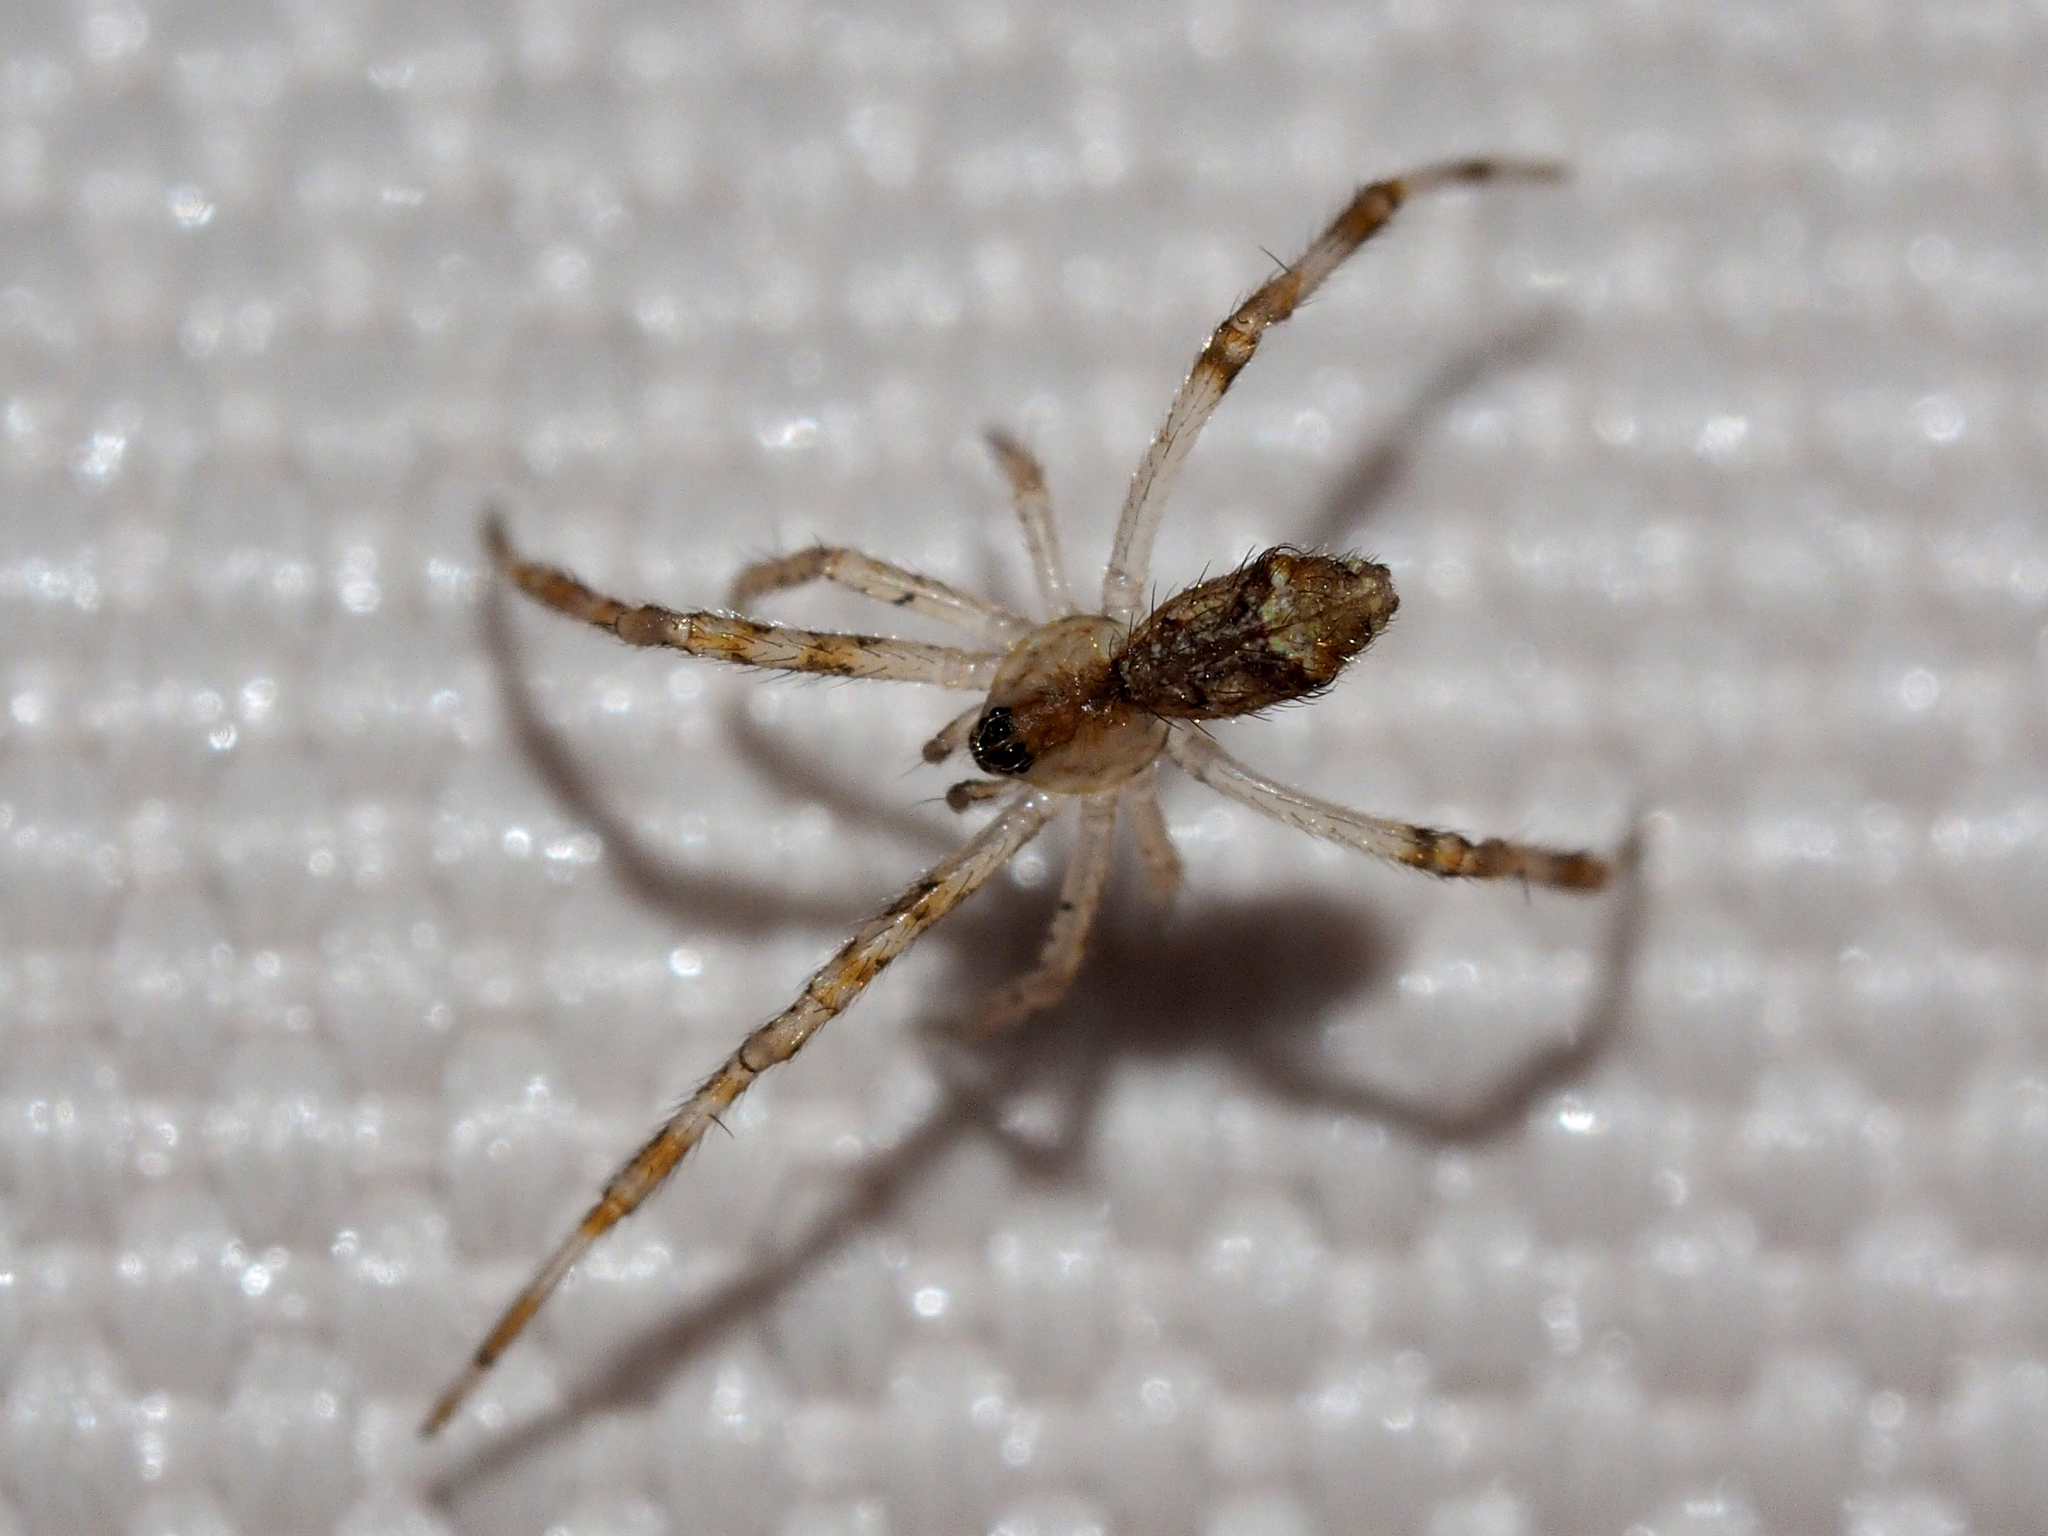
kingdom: Animalia
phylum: Arthropoda
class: Arachnida
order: Araneae
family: Theridiidae
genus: Episinus
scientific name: Episinus maculipes
